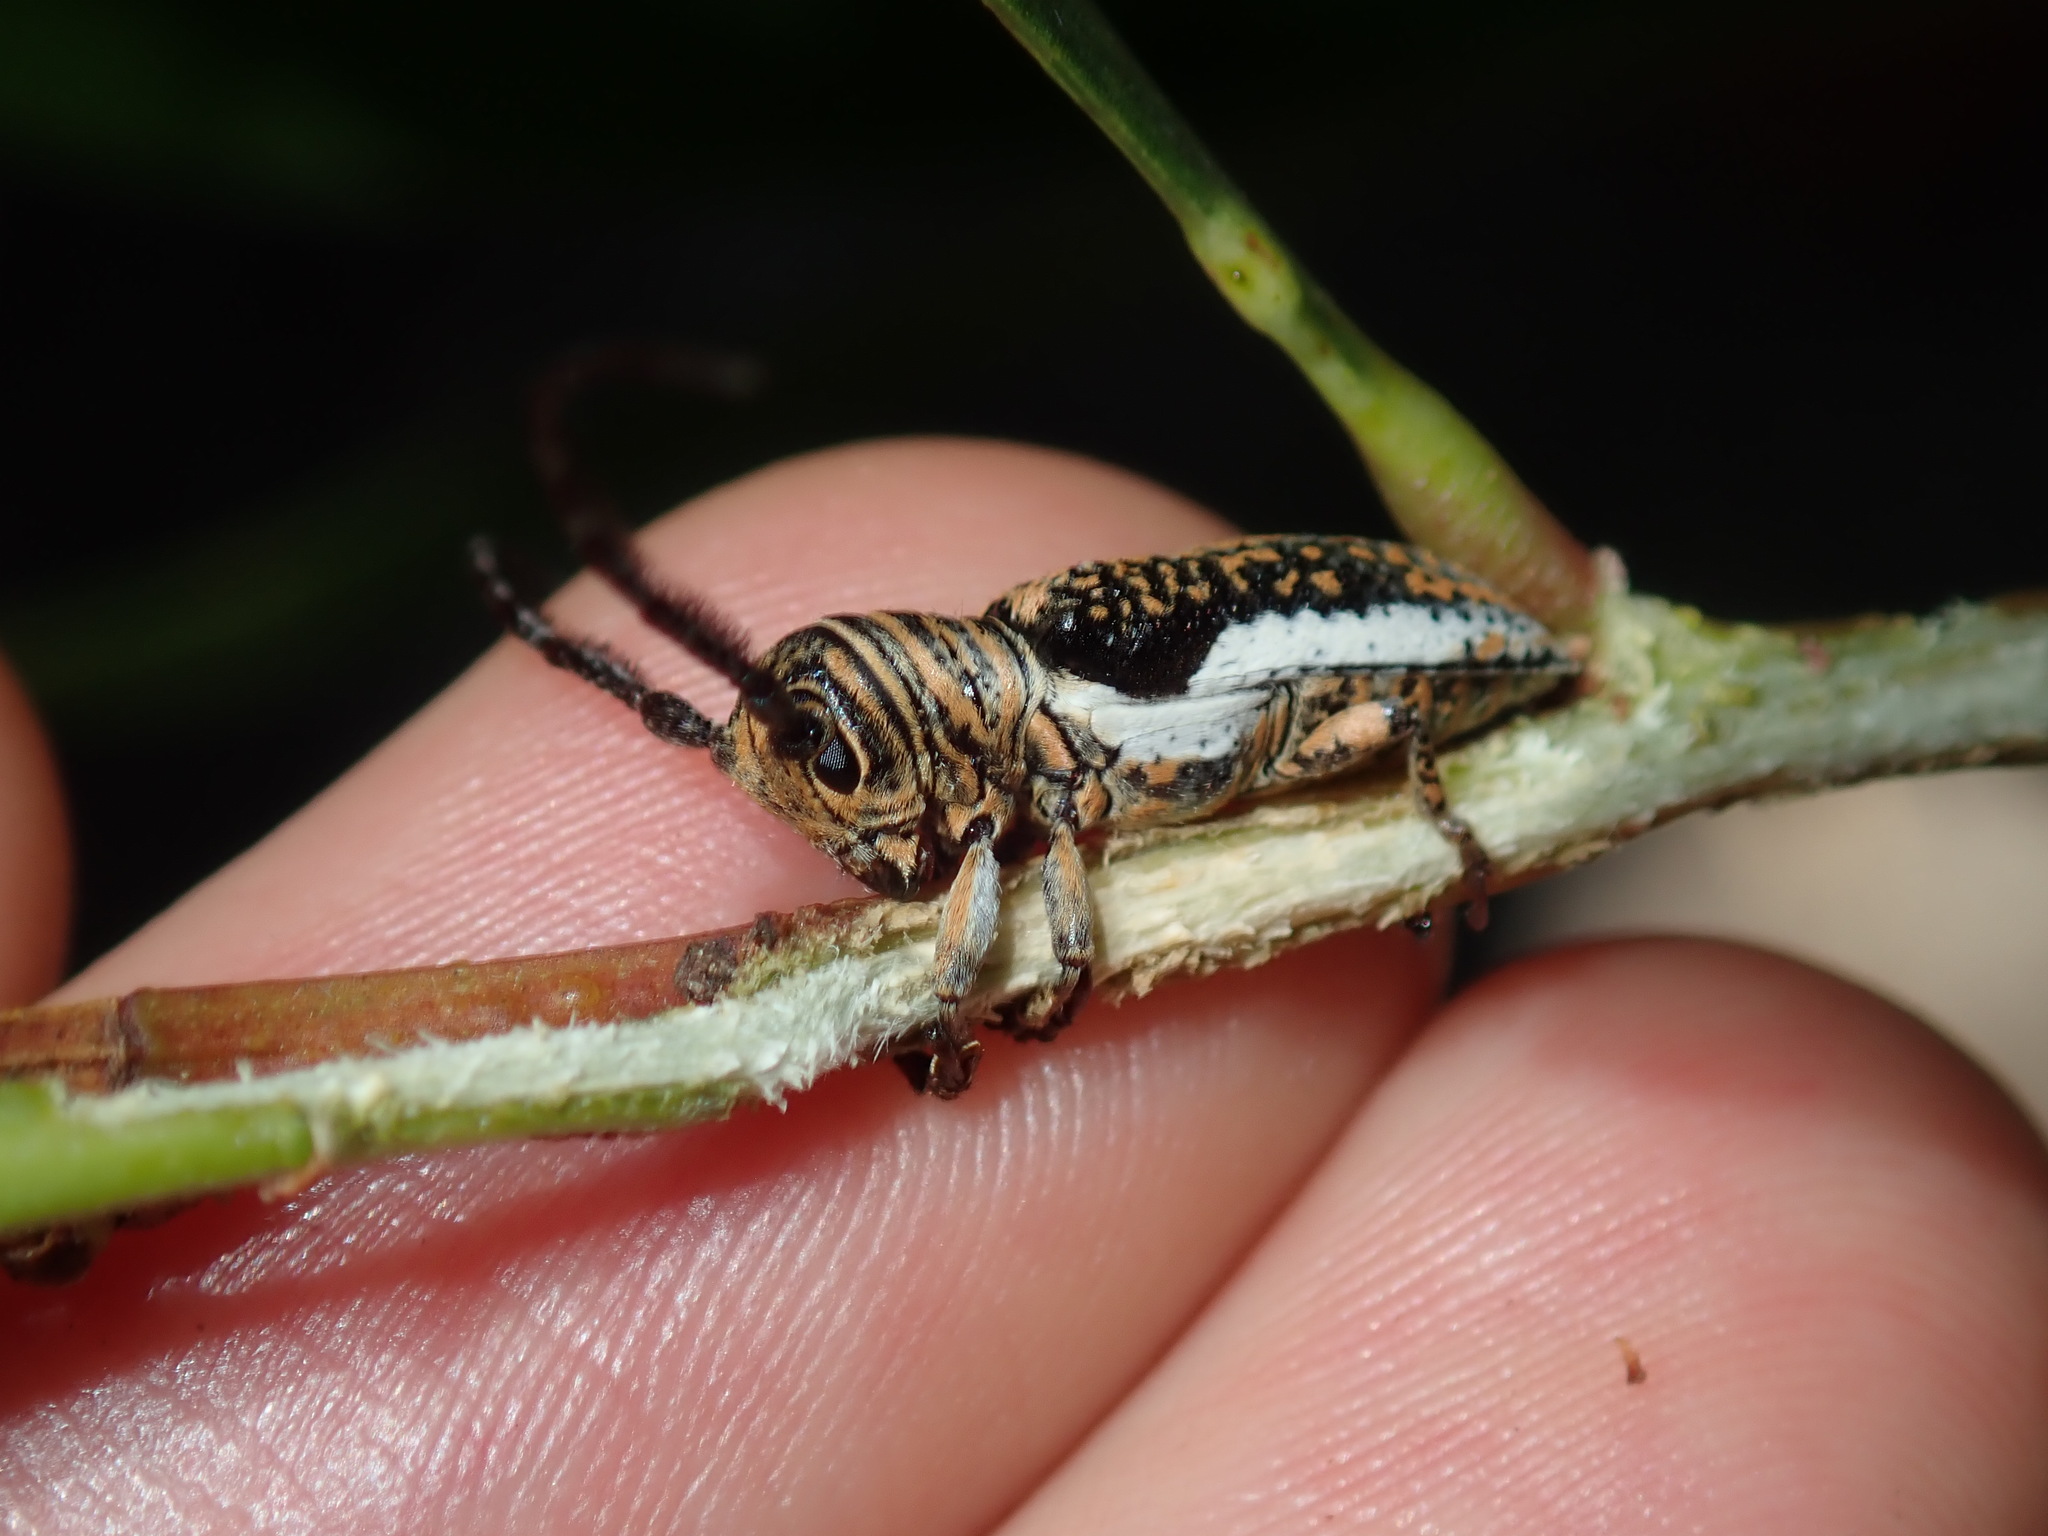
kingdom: Animalia
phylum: Arthropoda
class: Insecta
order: Coleoptera
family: Cerambycidae
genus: Rhytiphora
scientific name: Rhytiphora vestigialis
